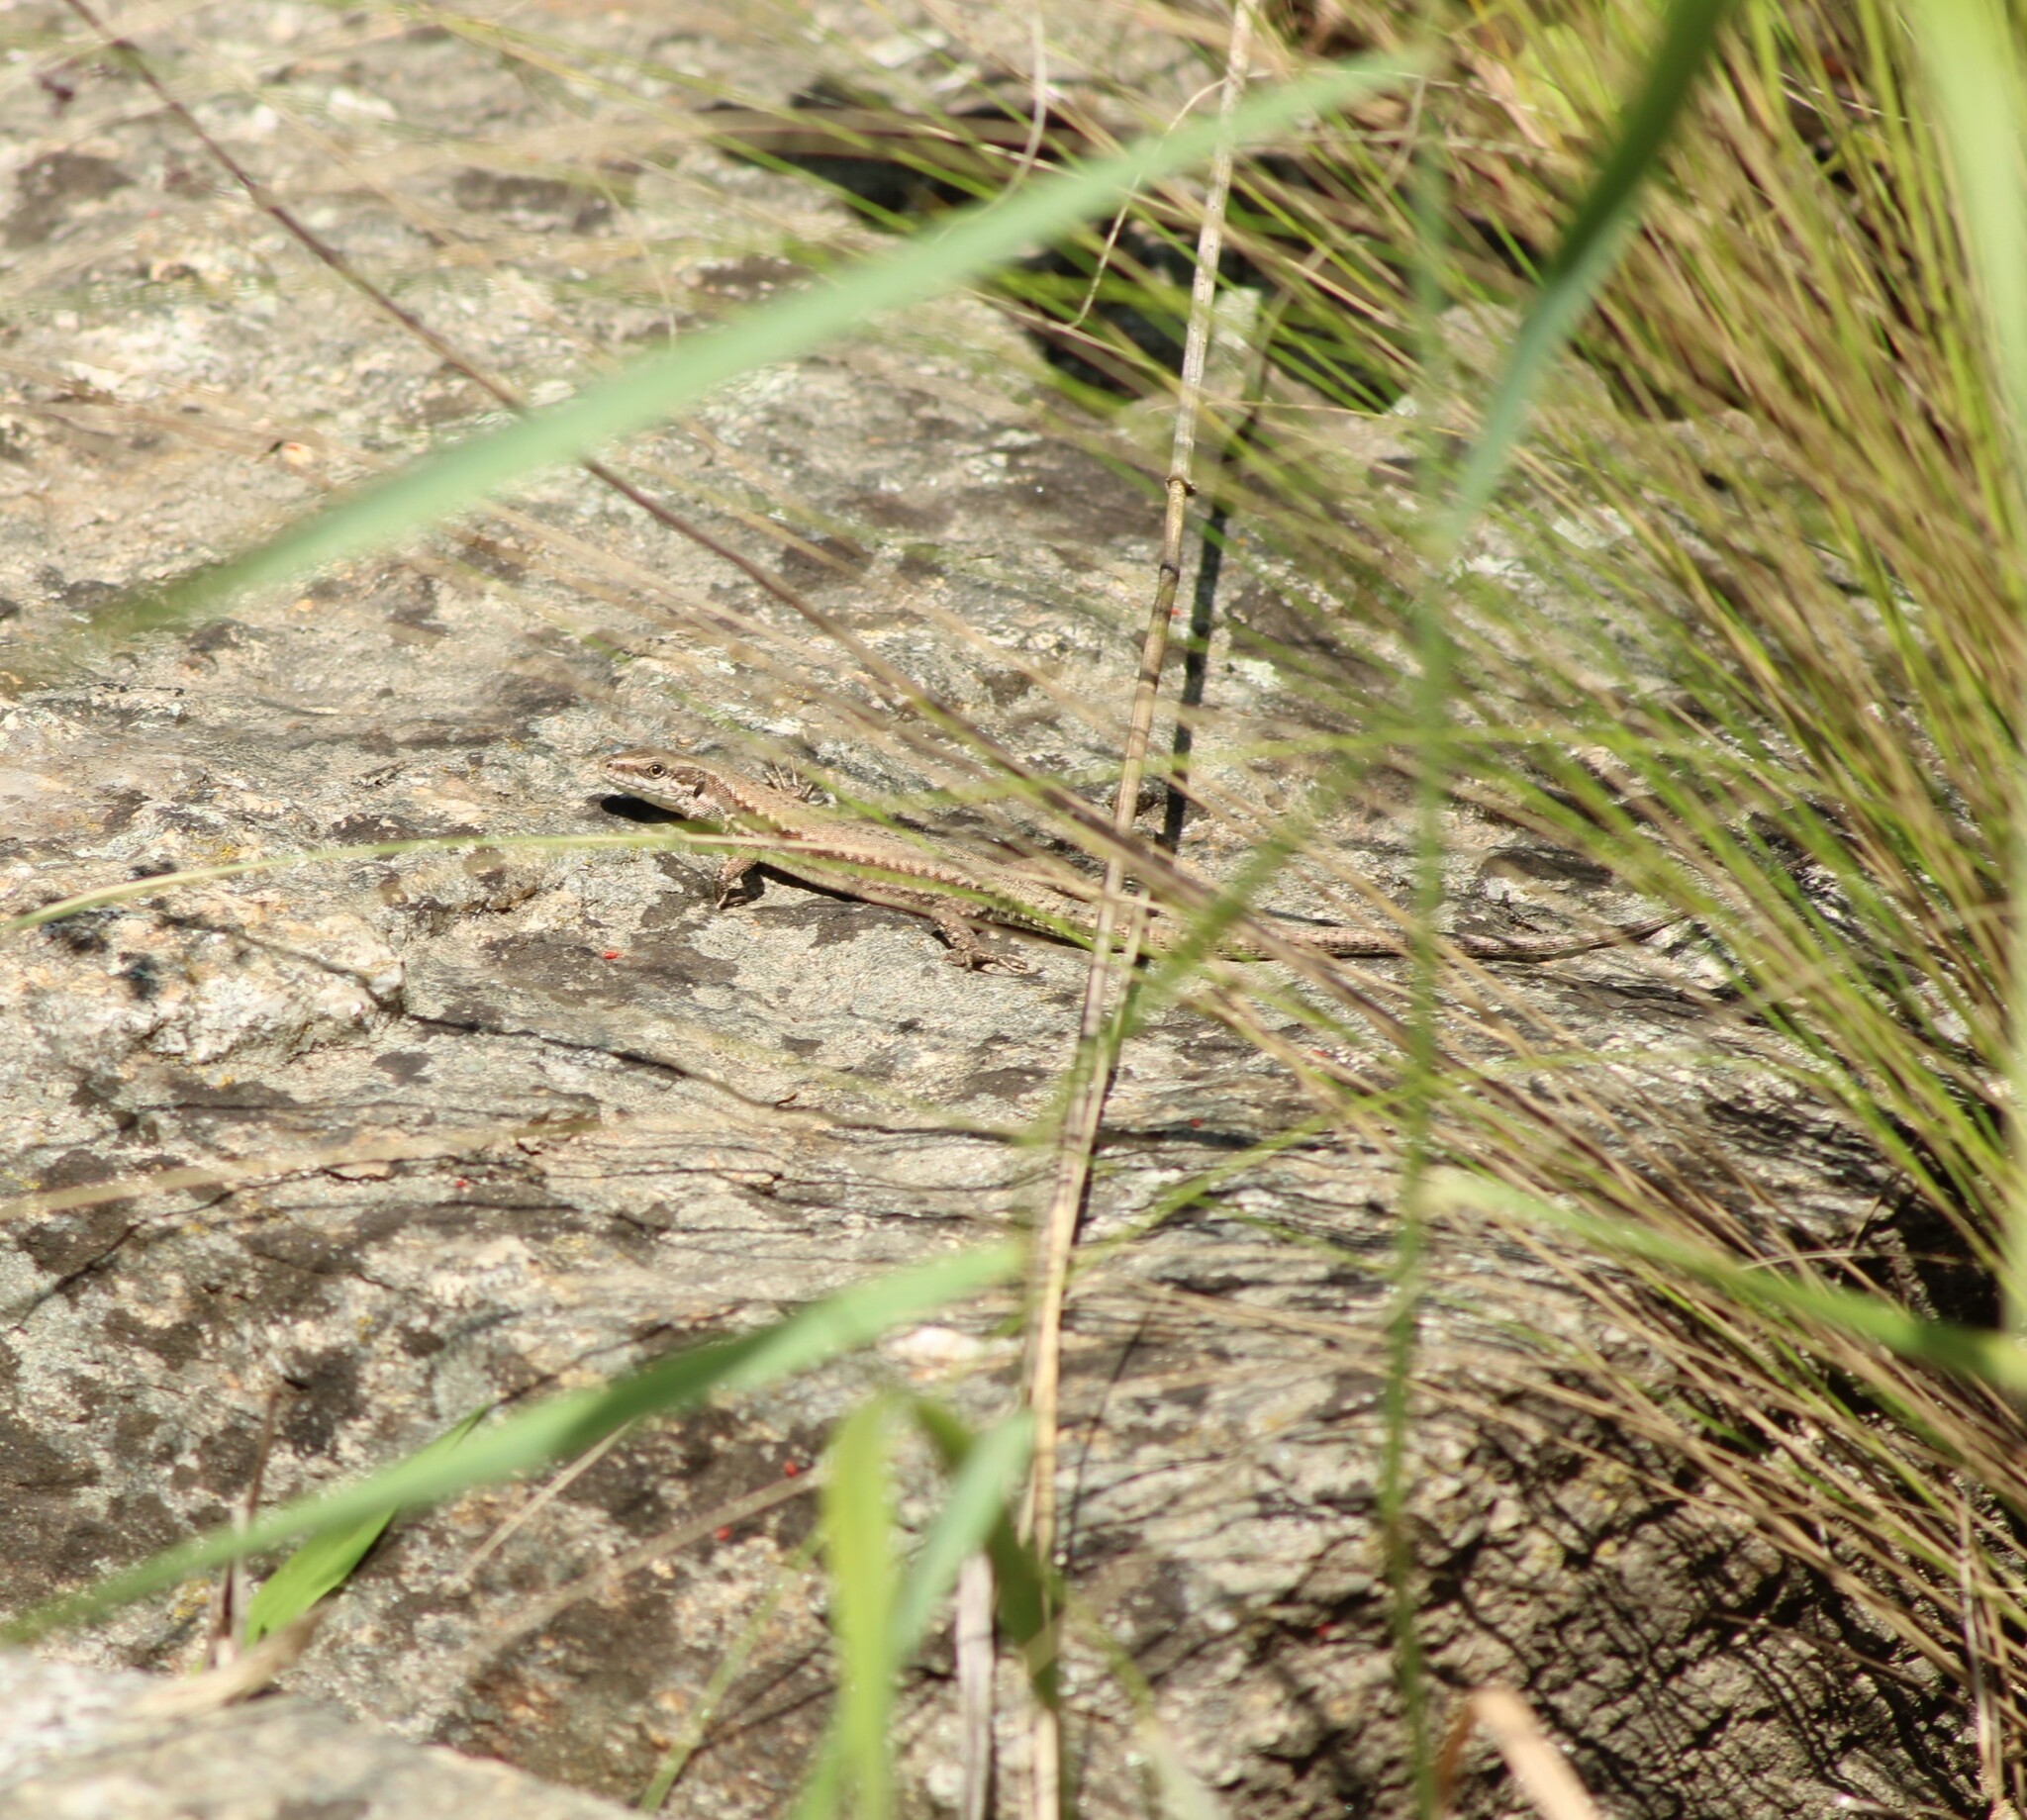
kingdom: Animalia
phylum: Chordata
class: Squamata
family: Lacertidae
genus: Podarcis
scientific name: Podarcis muralis
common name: Common wall lizard
